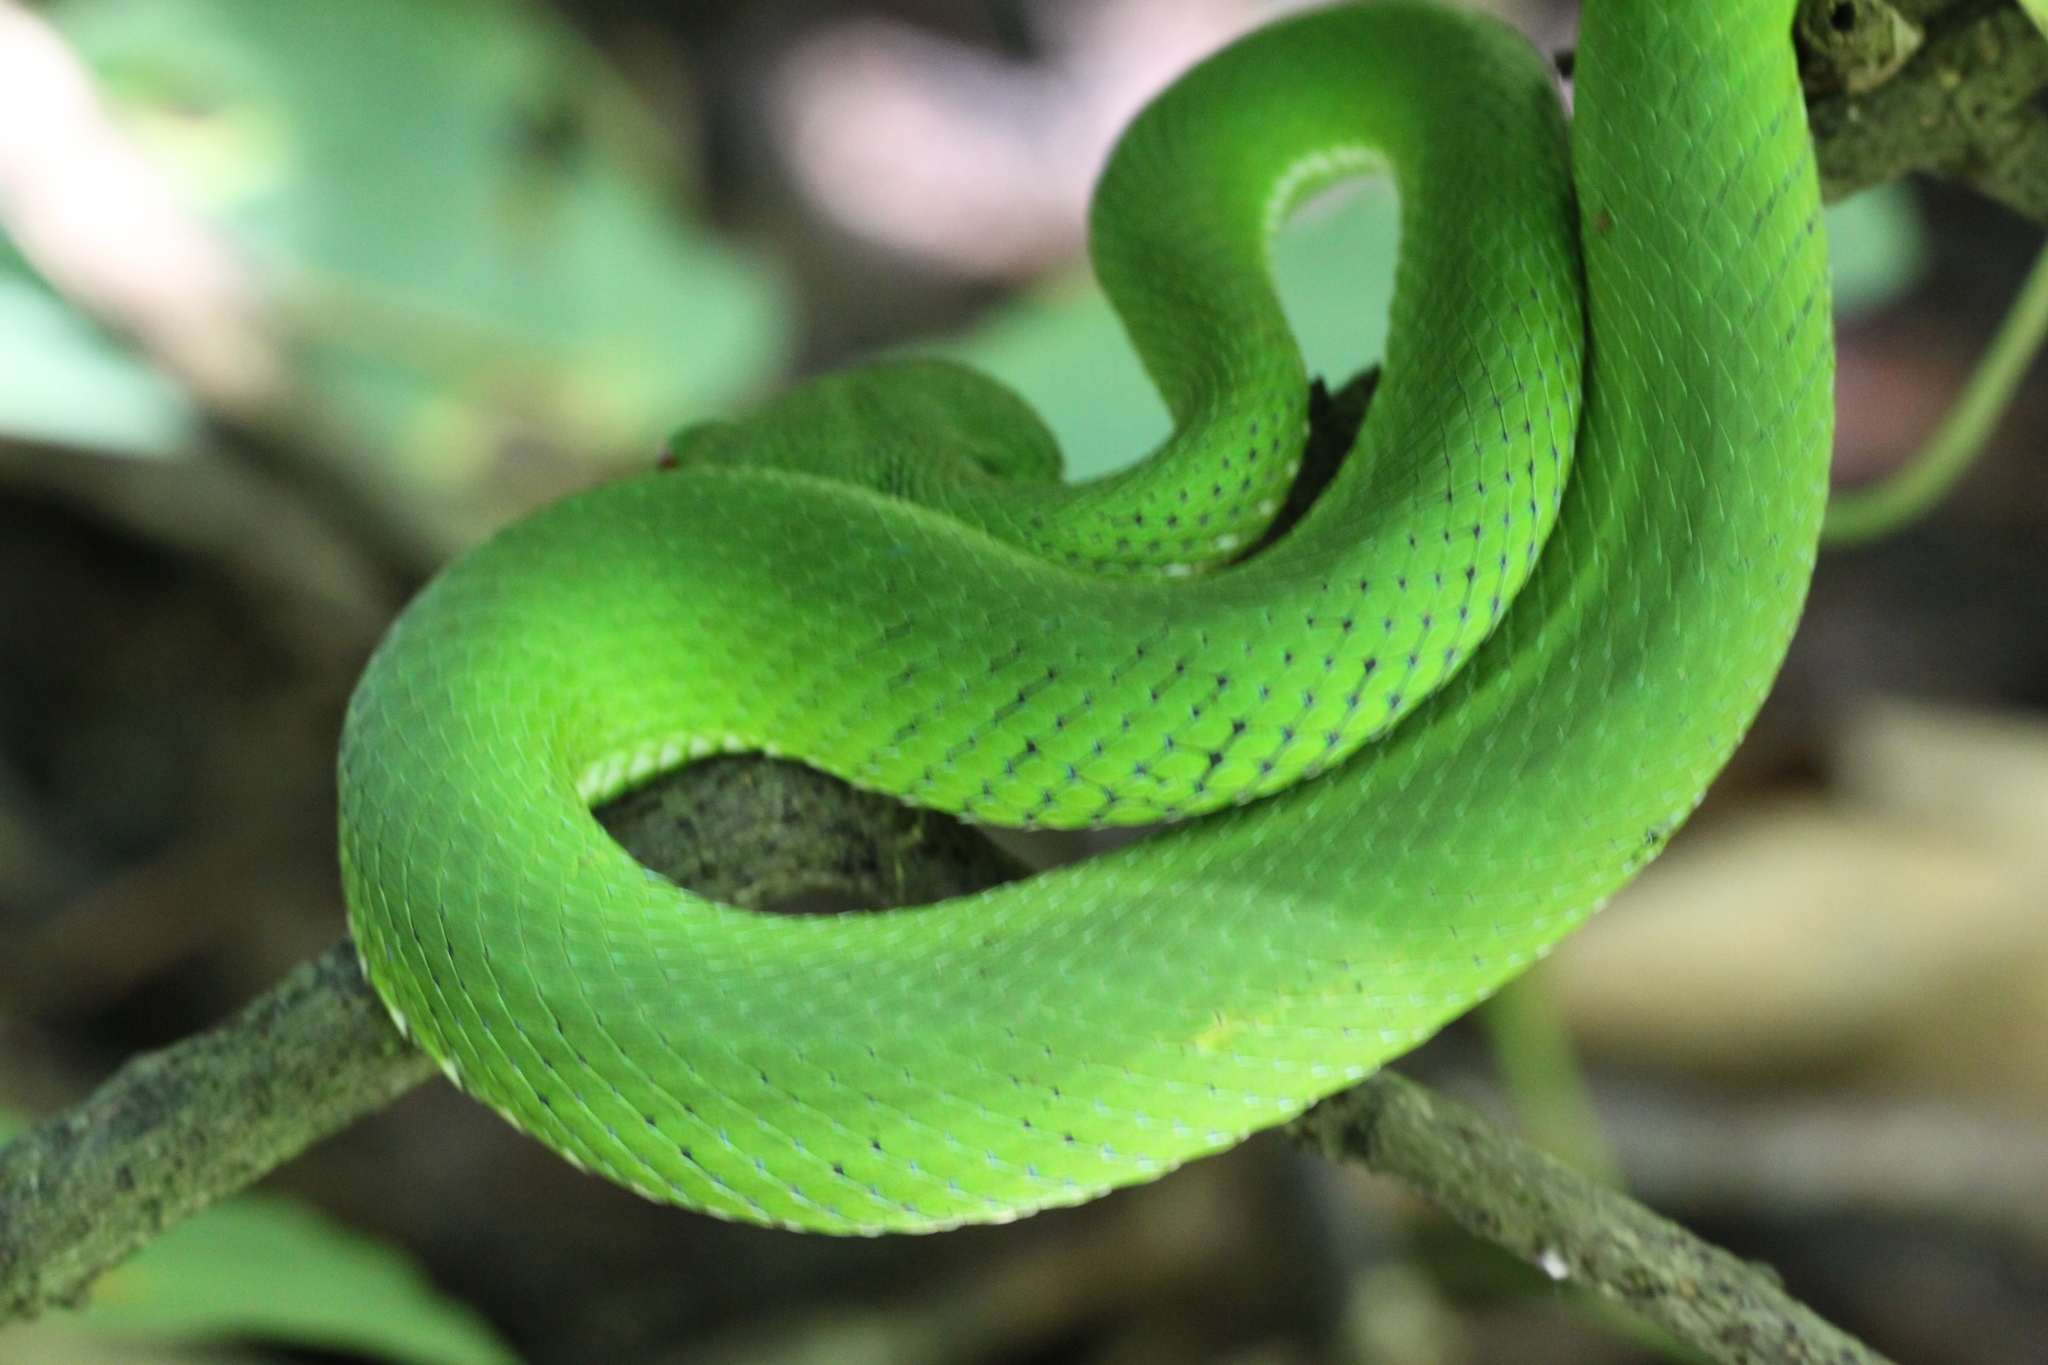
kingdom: Animalia
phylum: Chordata
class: Squamata
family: Viperidae
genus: Trimeresurus
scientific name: Trimeresurus popeiorum
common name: Pope's bamboo pit viper
